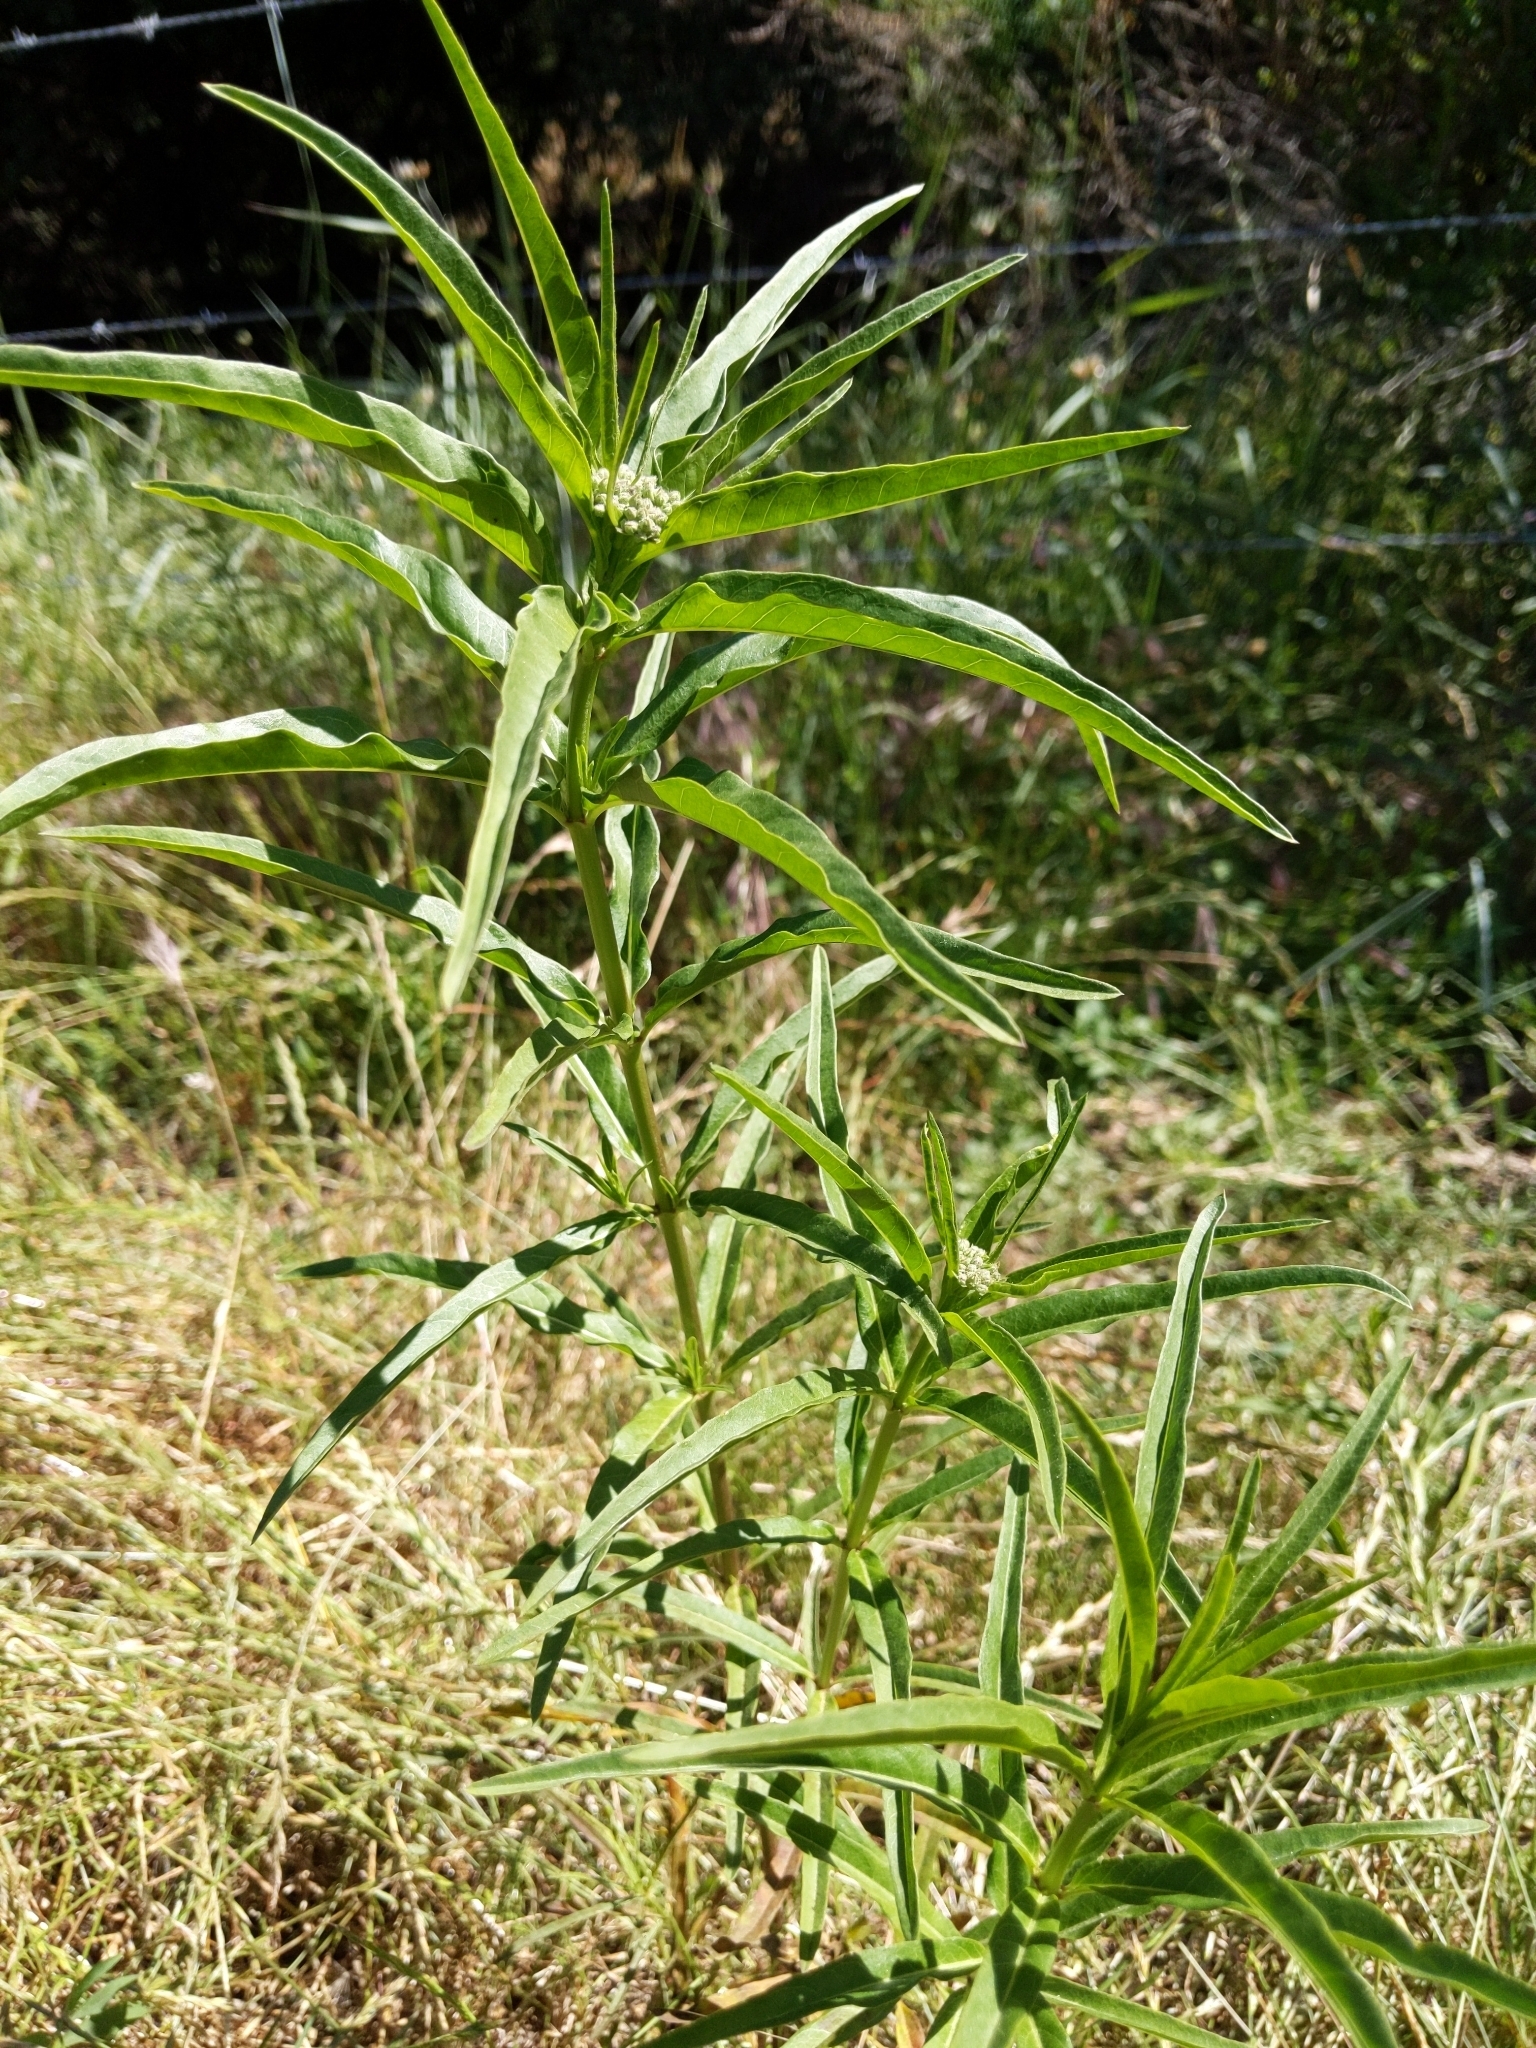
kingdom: Plantae
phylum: Tracheophyta
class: Magnoliopsida
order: Gentianales
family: Apocynaceae
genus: Asclepias
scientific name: Asclepias fascicularis
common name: Mexican milkweed
